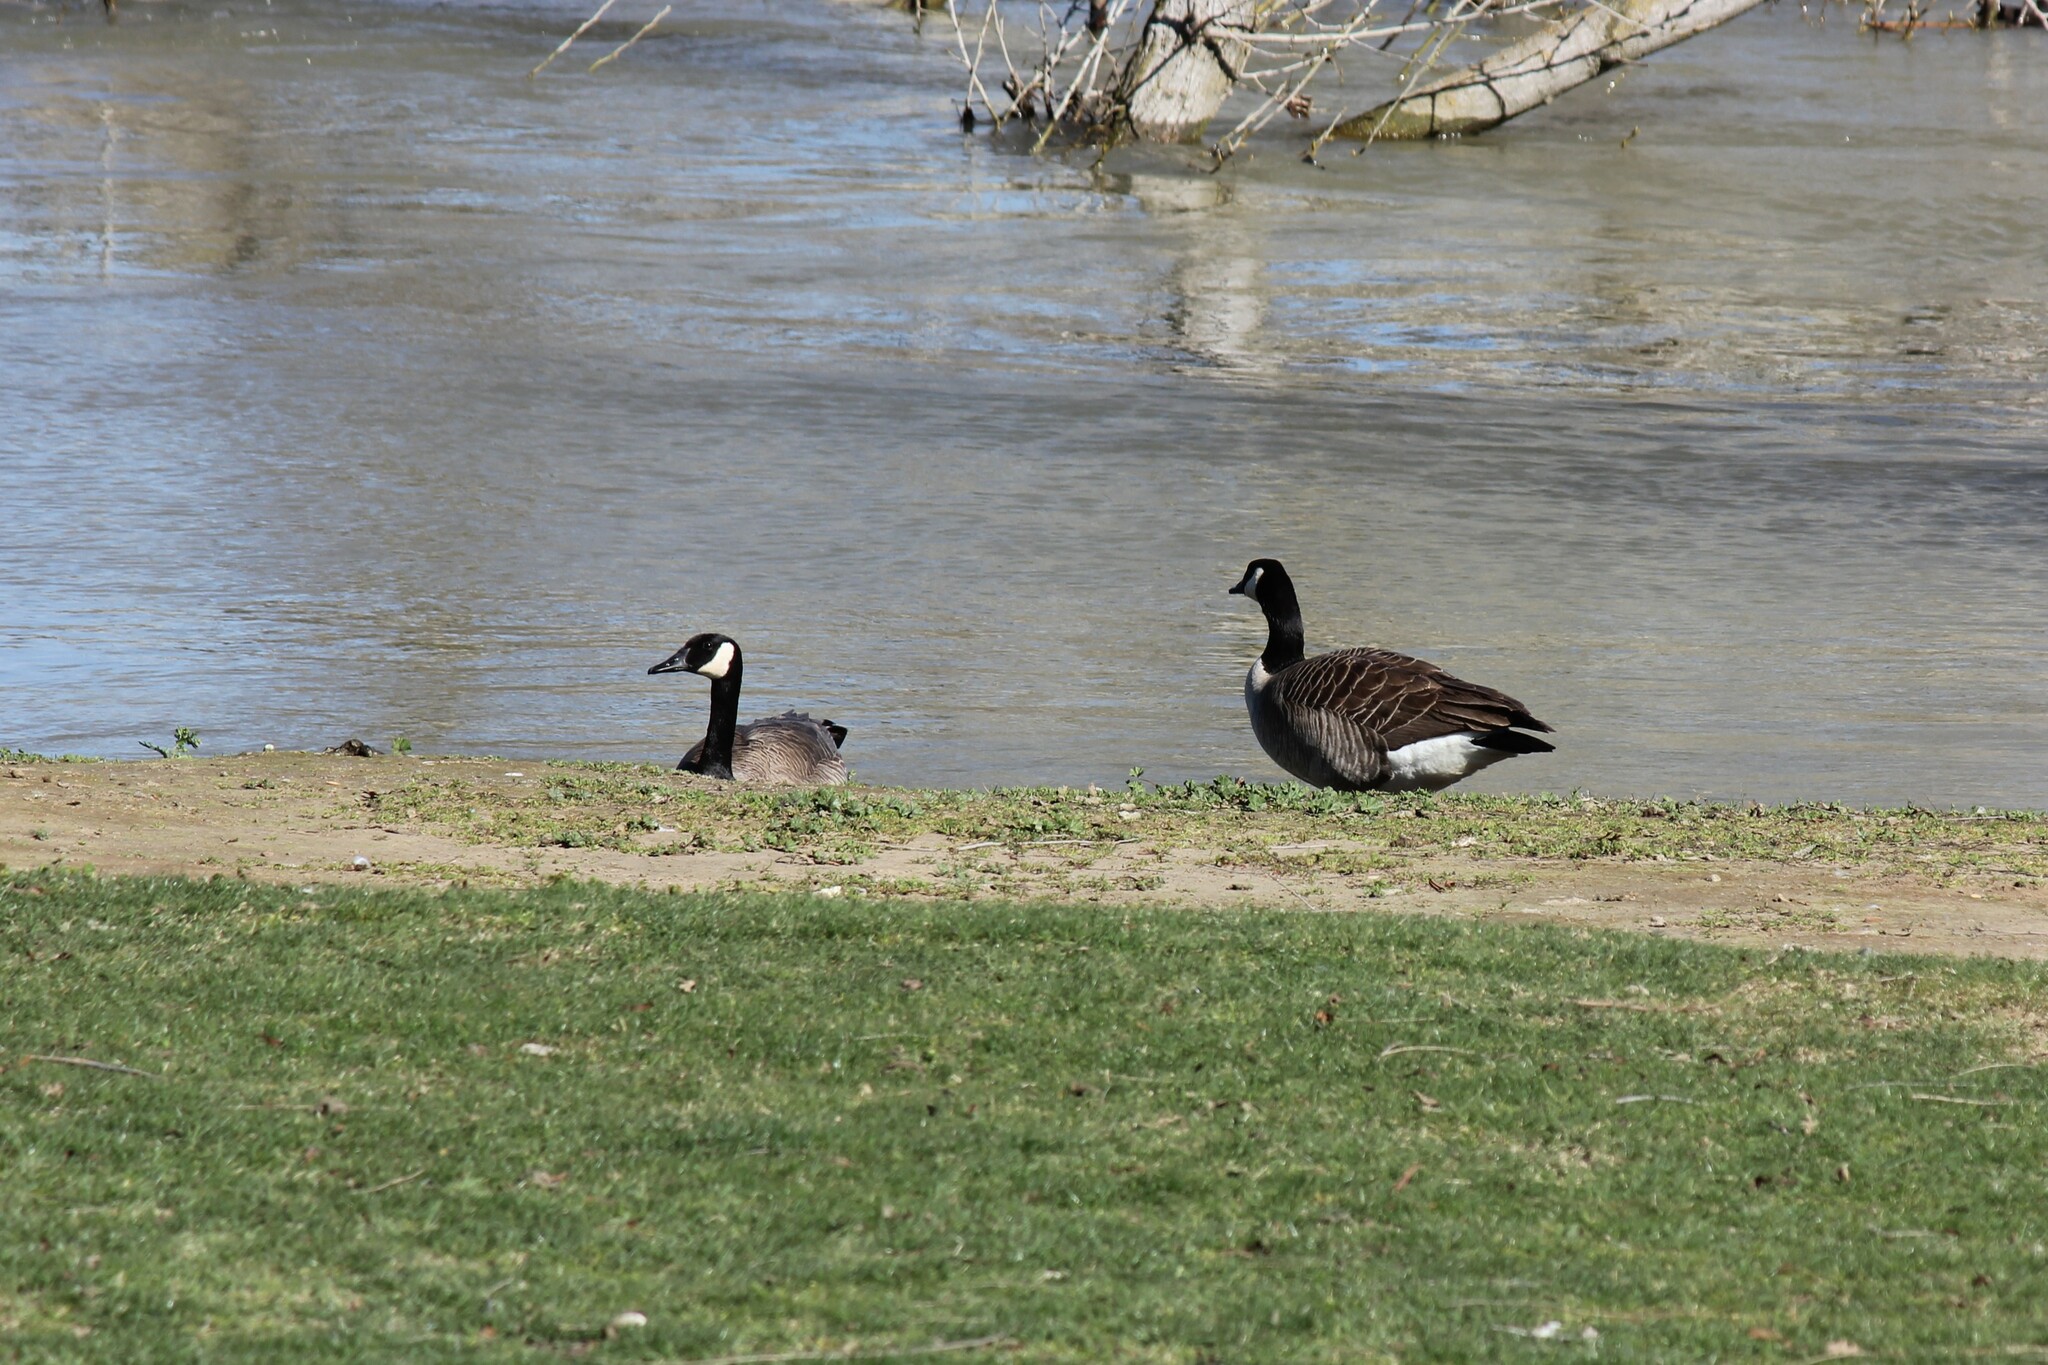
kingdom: Animalia
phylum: Chordata
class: Aves
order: Anseriformes
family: Anatidae
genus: Branta
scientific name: Branta canadensis
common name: Canada goose
